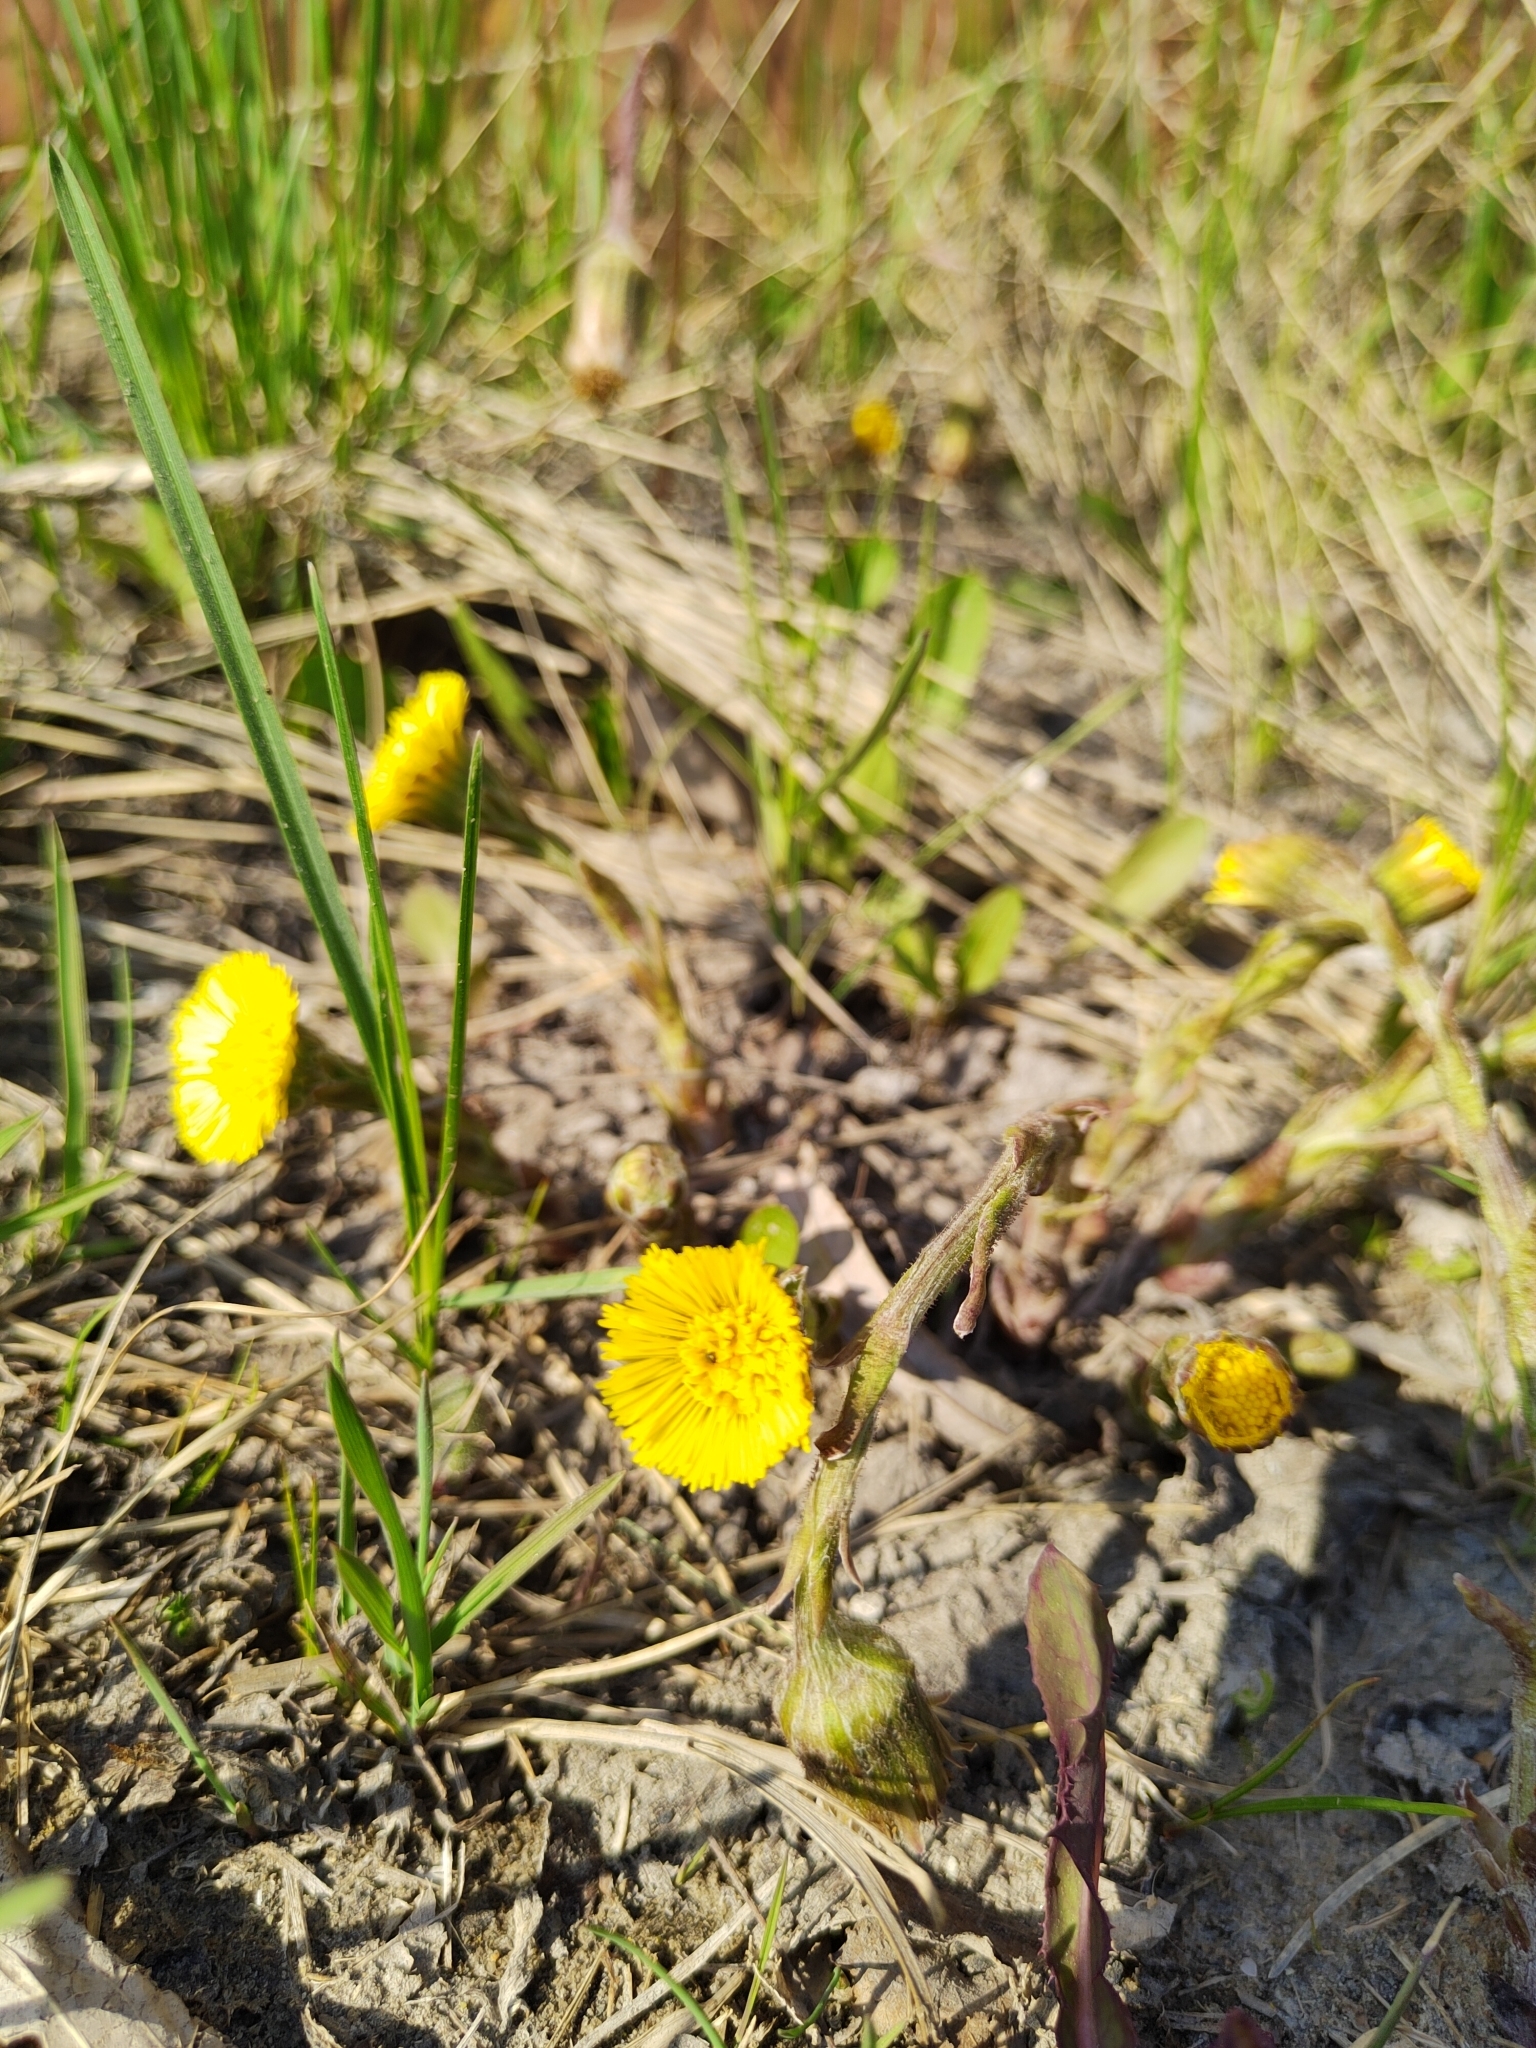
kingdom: Plantae
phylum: Tracheophyta
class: Magnoliopsida
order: Asterales
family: Asteraceae
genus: Tussilago
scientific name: Tussilago farfara
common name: Coltsfoot
